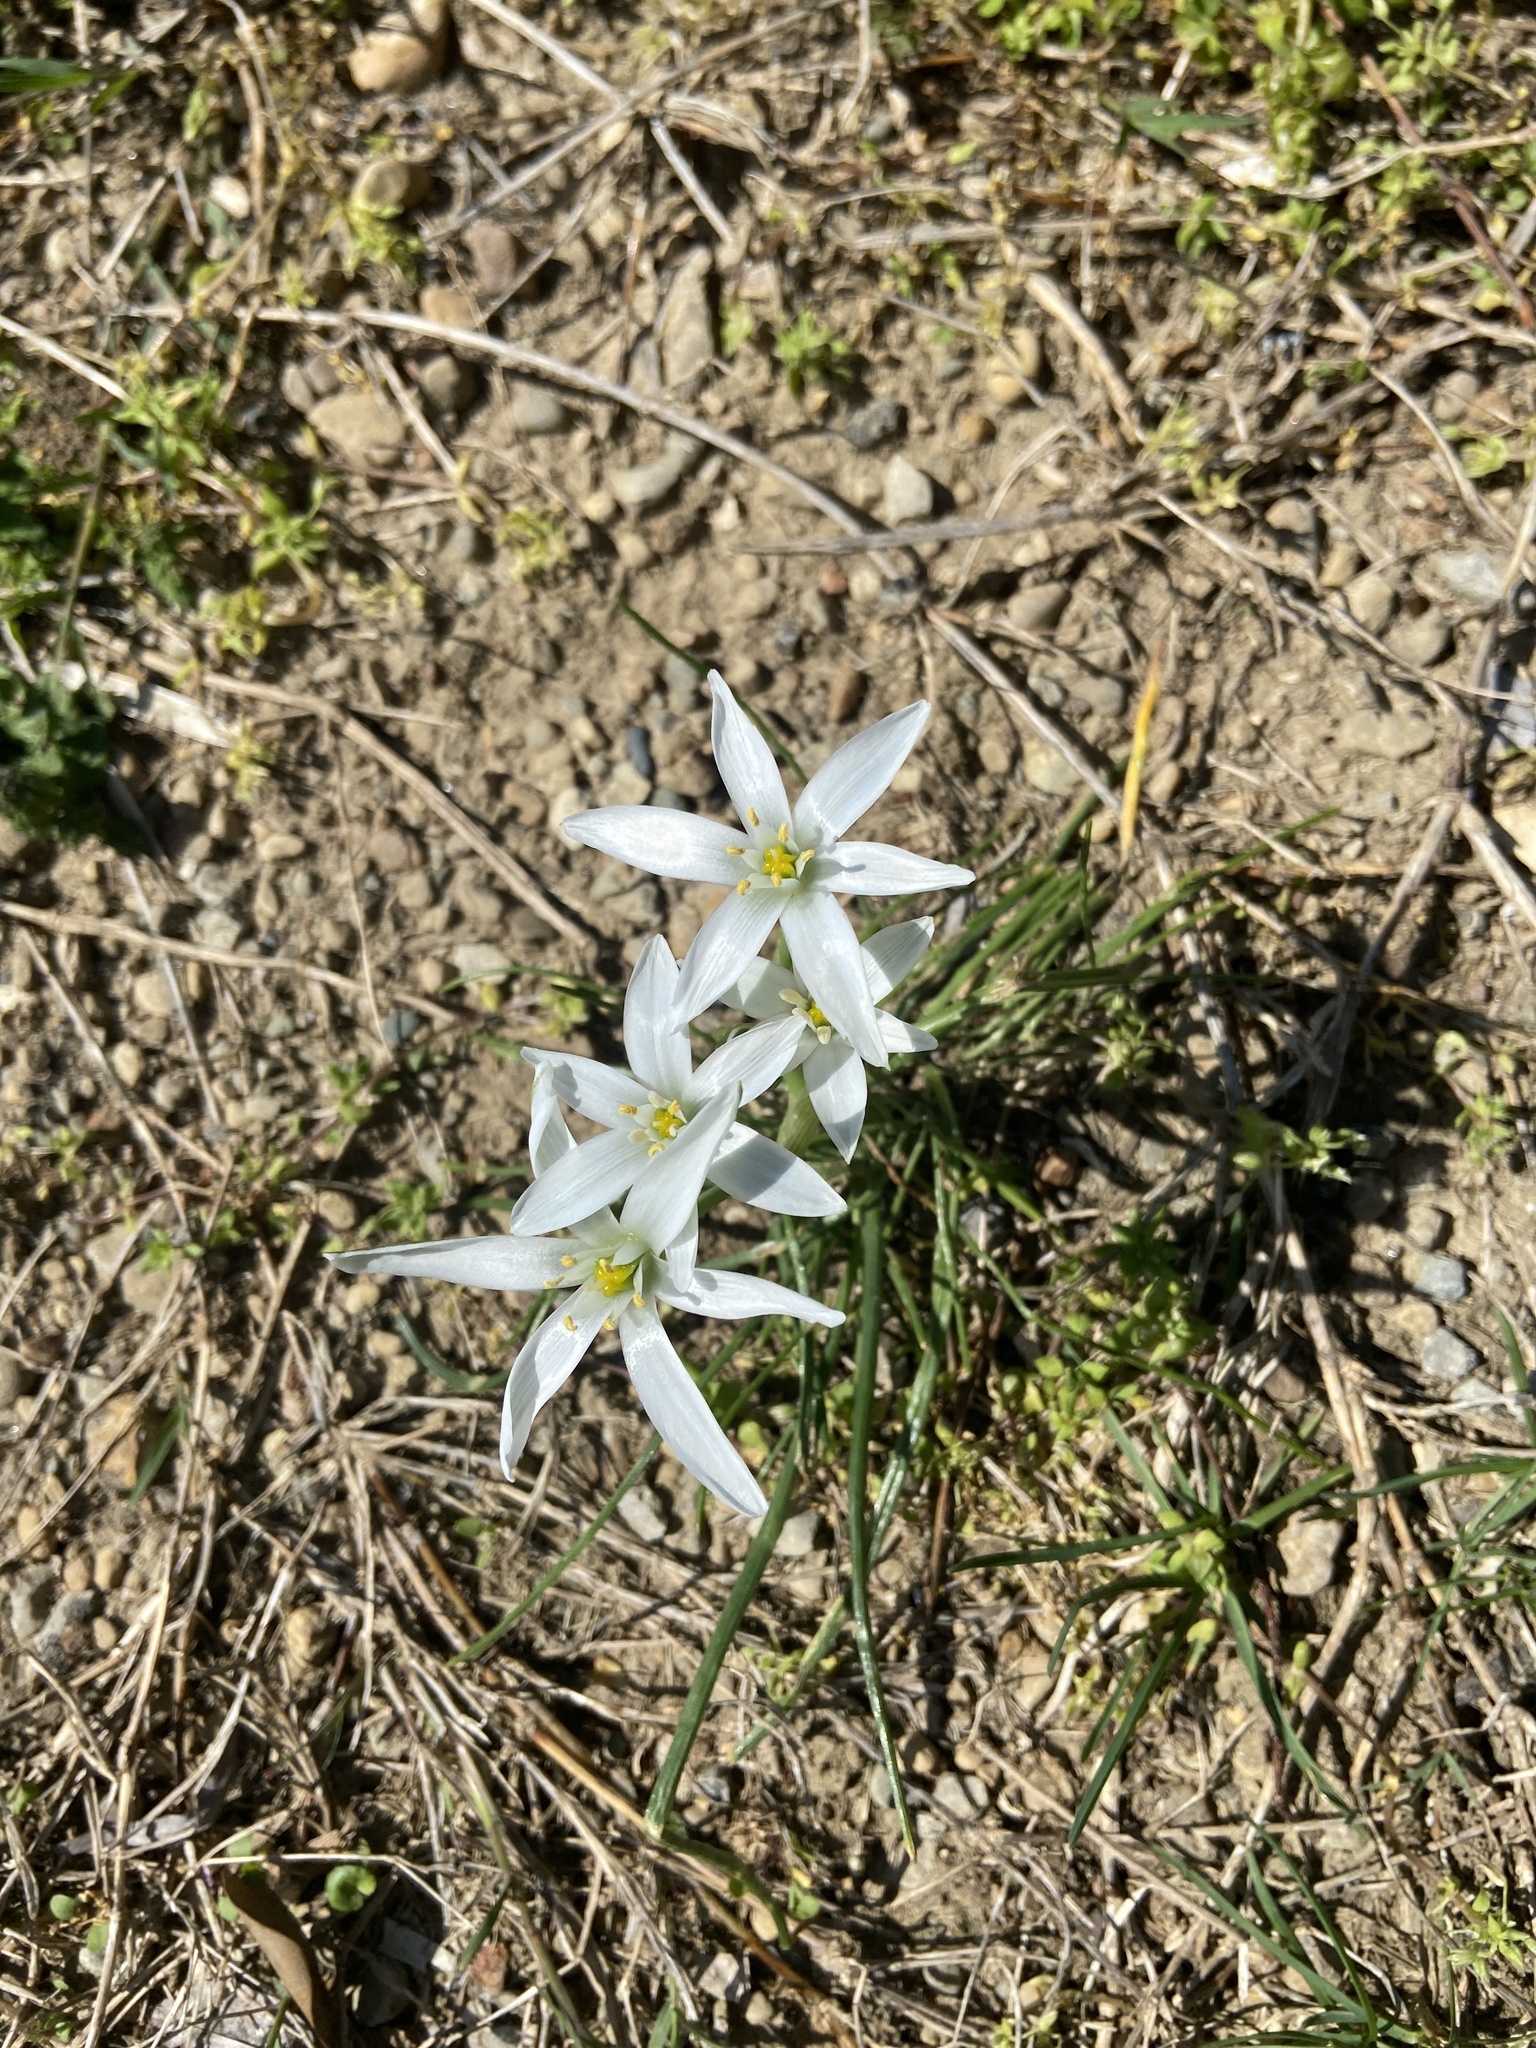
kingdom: Plantae
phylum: Tracheophyta
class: Liliopsida
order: Asparagales
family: Asparagaceae
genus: Ornithogalum
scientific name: Ornithogalum umbellatum
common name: Garden star-of-bethlehem
